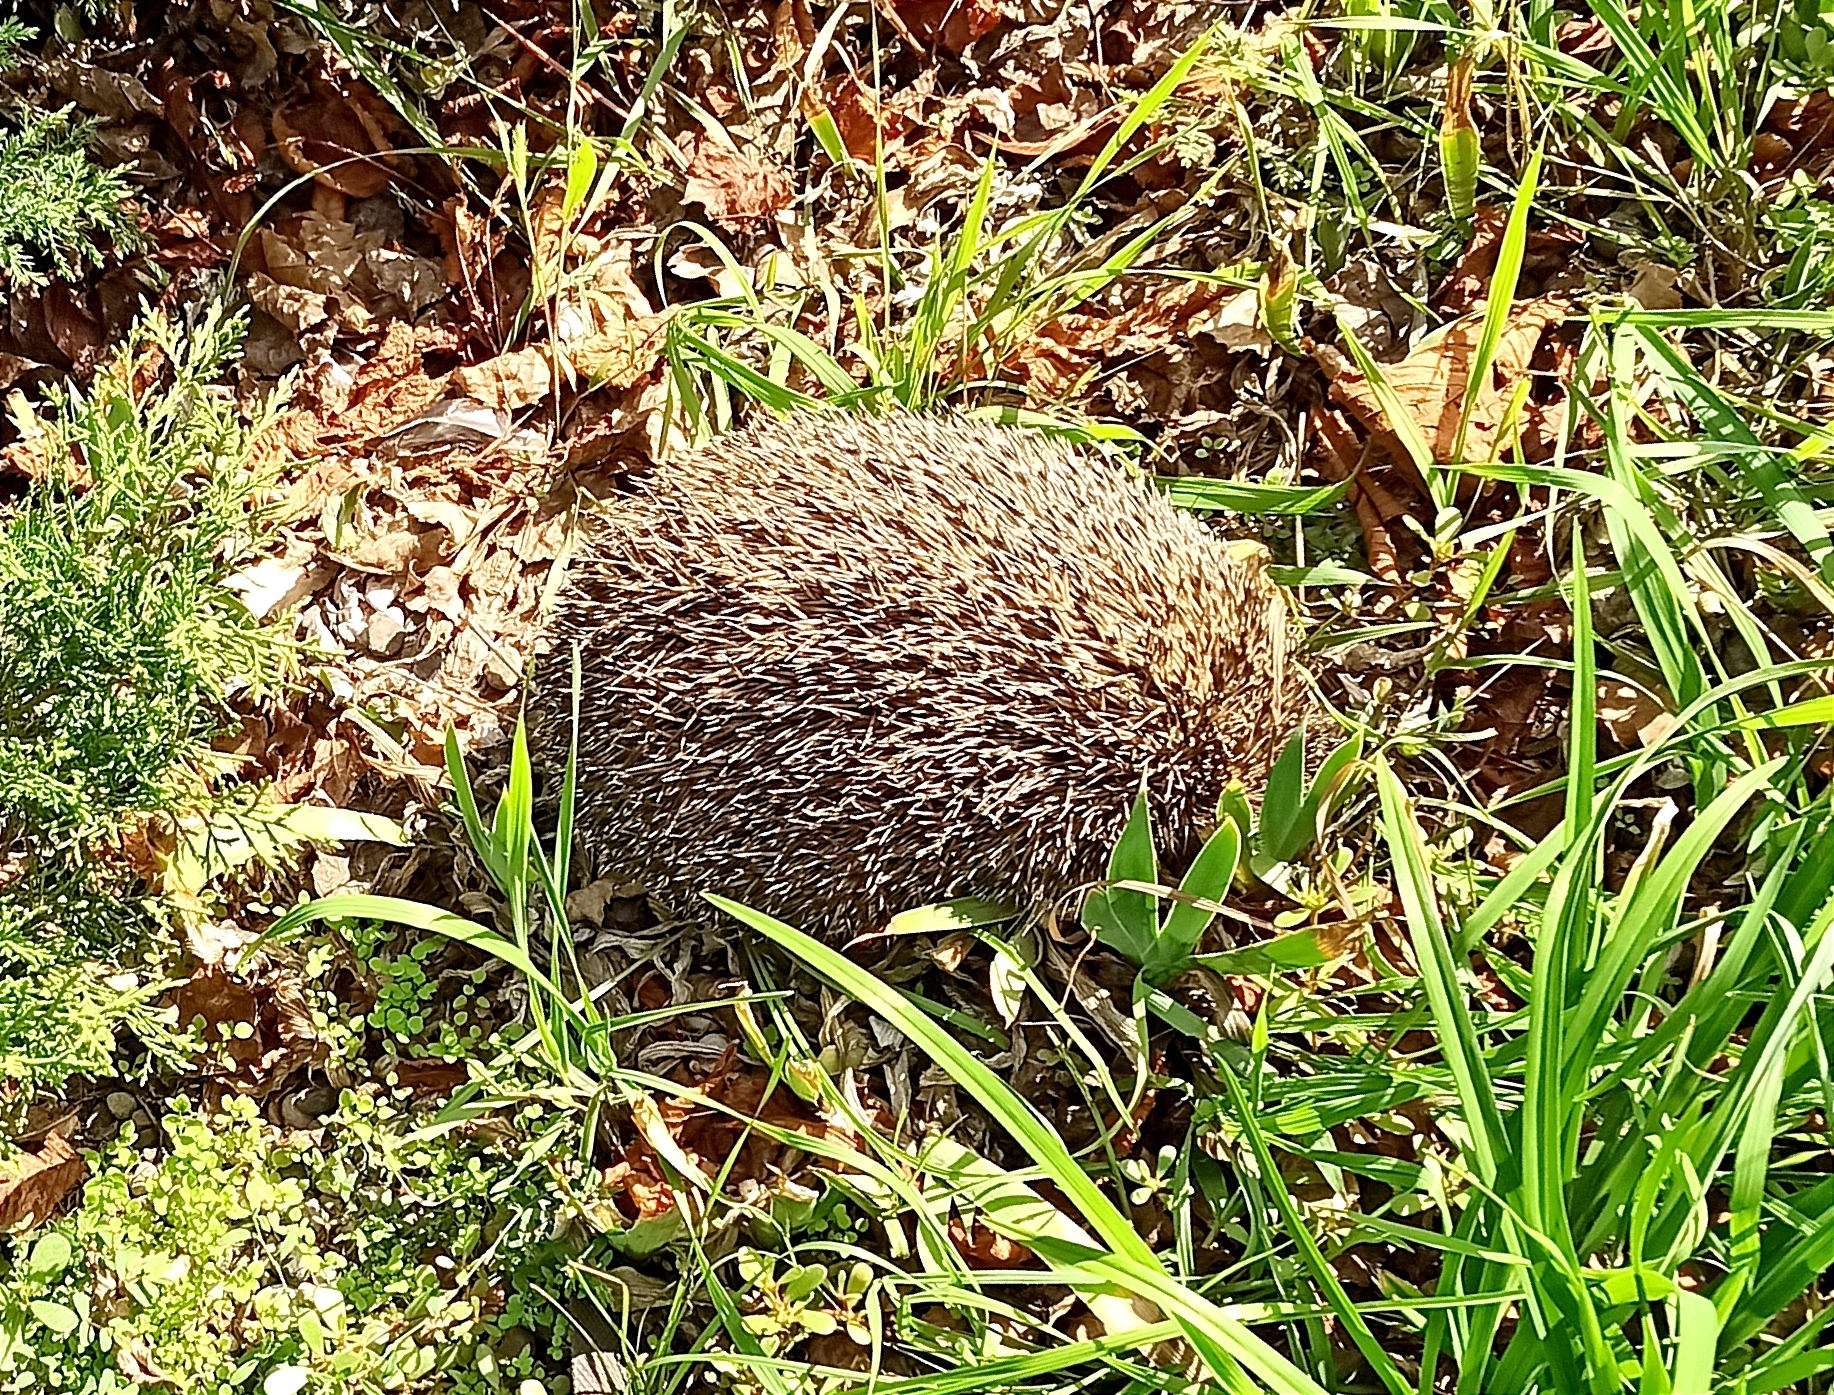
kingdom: Animalia
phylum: Chordata
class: Mammalia
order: Erinaceomorpha
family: Erinaceidae
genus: Erinaceus
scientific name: Erinaceus roumanicus
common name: Northern white-breasted hedgehog
